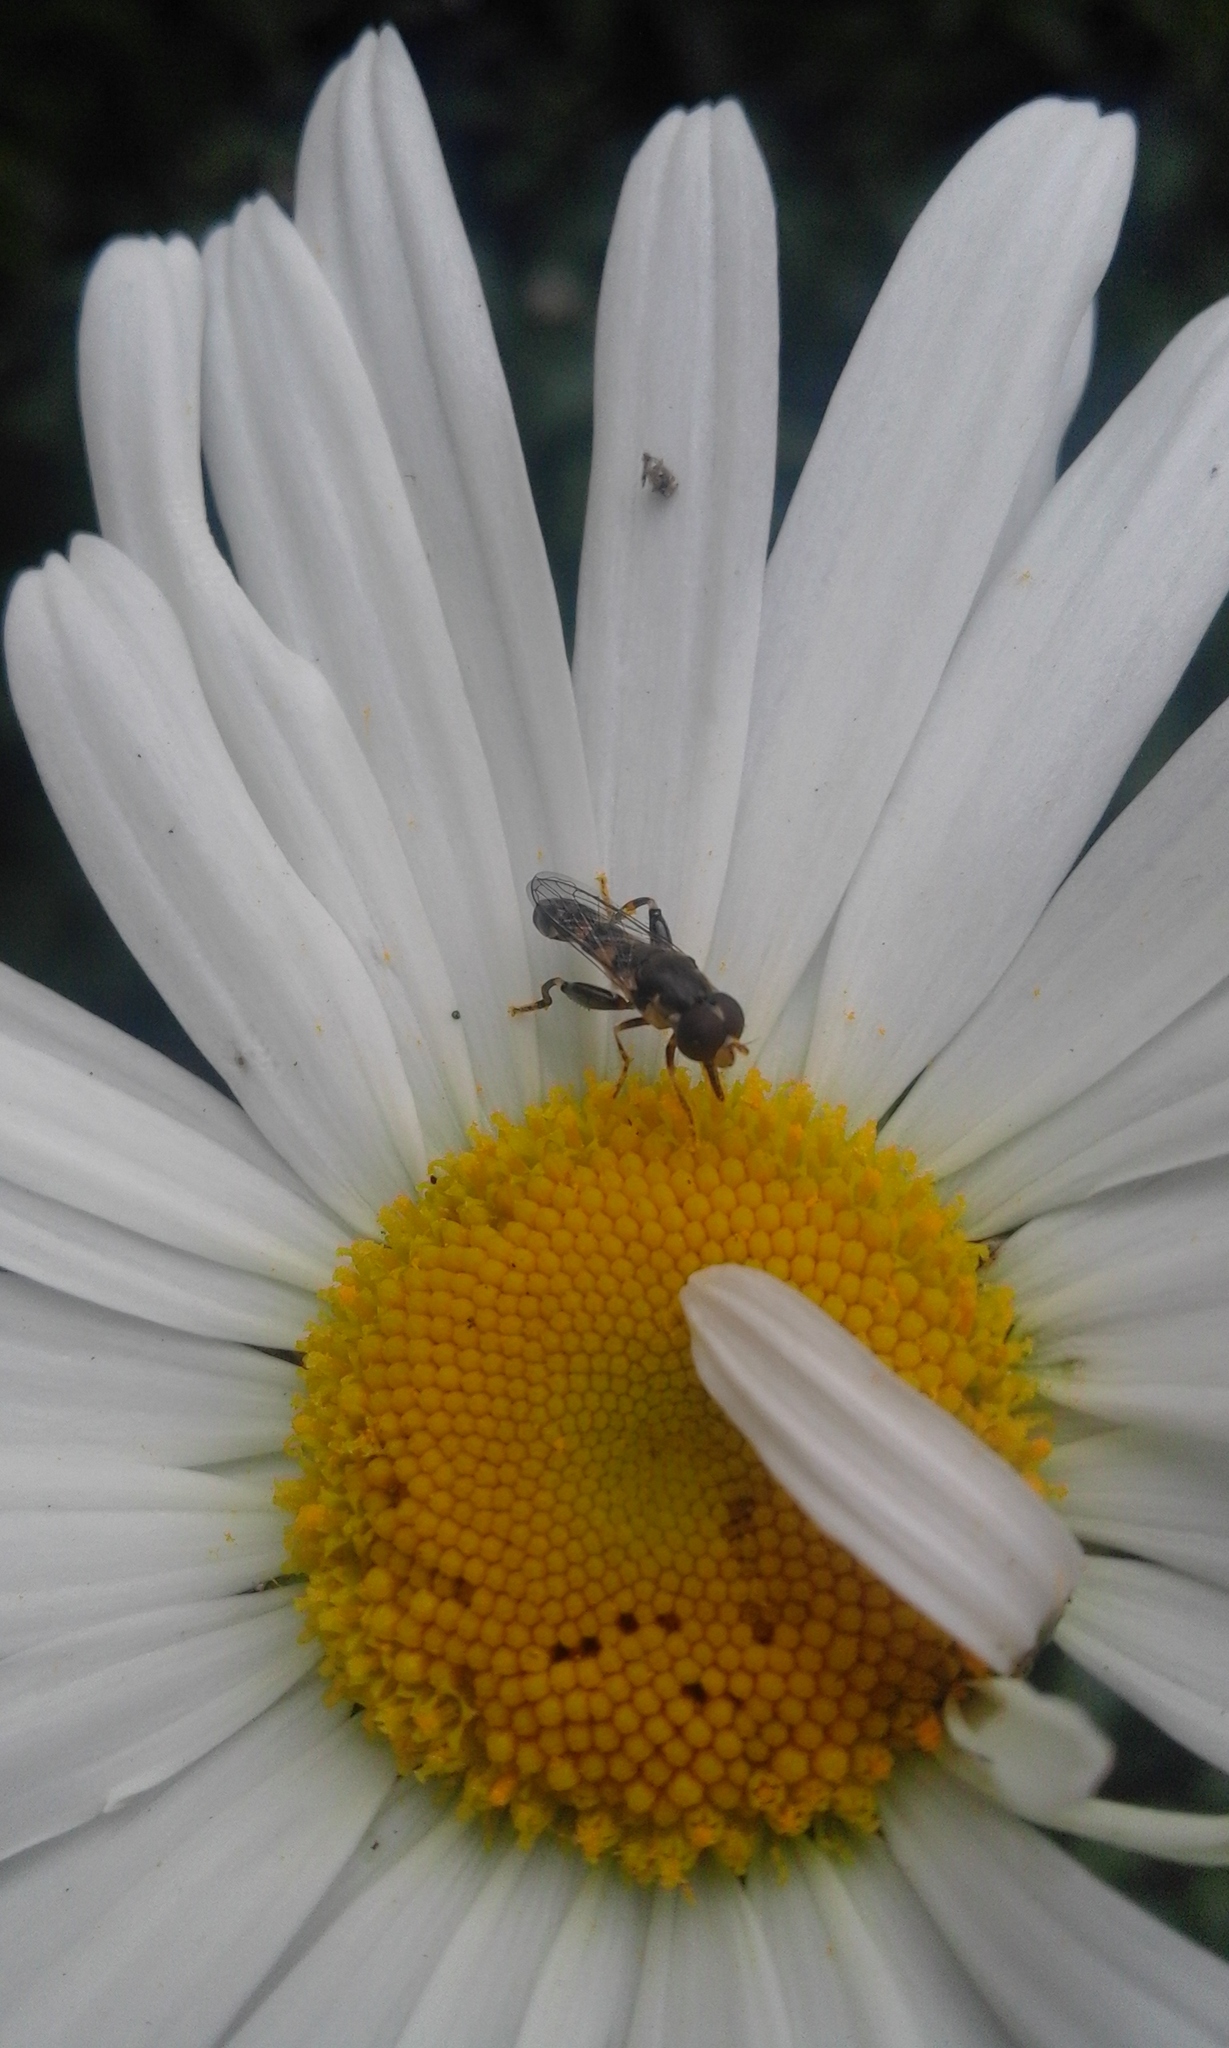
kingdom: Animalia
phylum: Arthropoda
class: Insecta
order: Diptera
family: Syrphidae
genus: Syritta
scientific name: Syritta pipiens
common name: Hover fly
